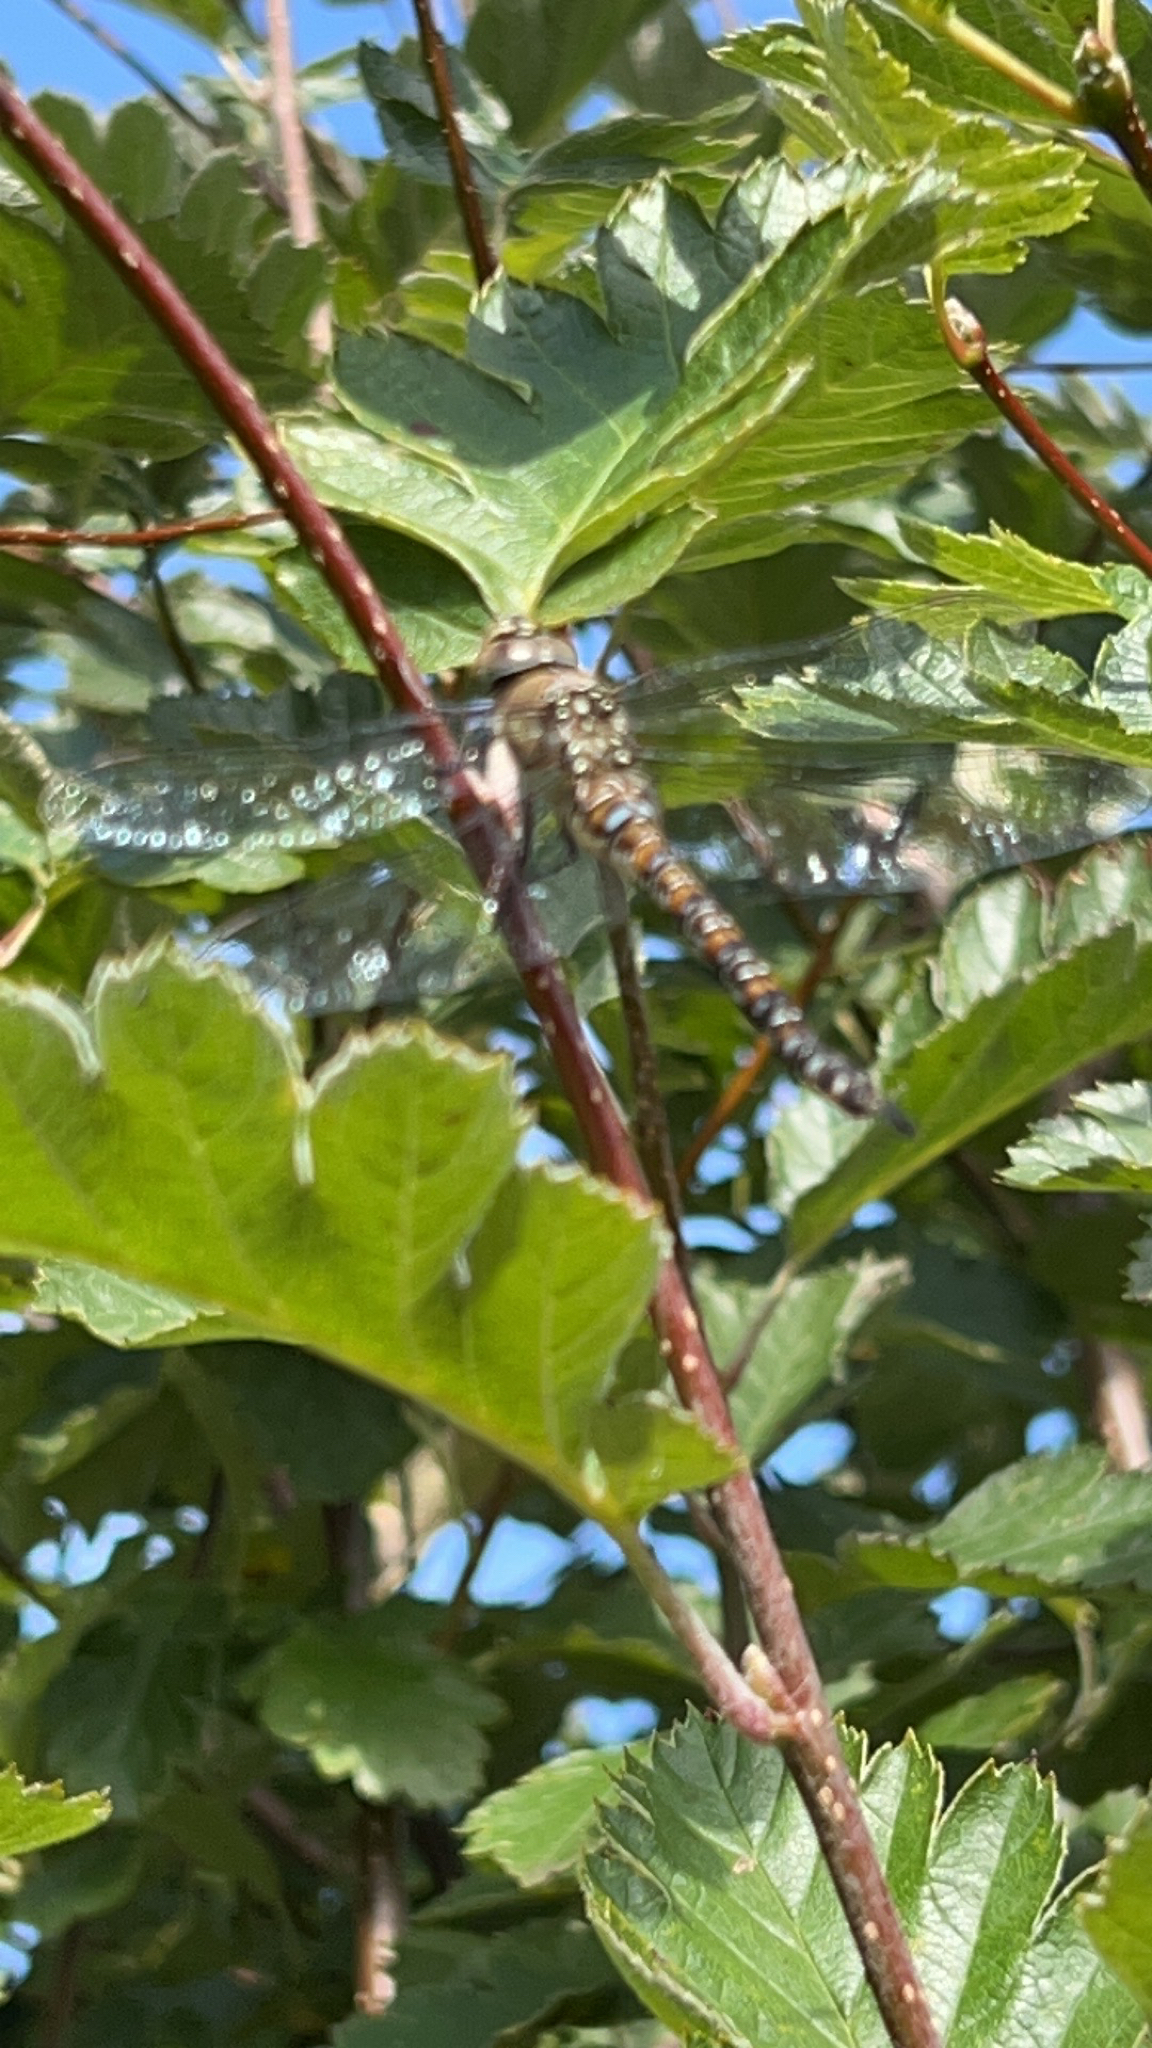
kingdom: Animalia
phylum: Arthropoda
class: Insecta
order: Odonata
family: Aeshnidae
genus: Aeshna
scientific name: Aeshna mixta
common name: Migrant hawker
